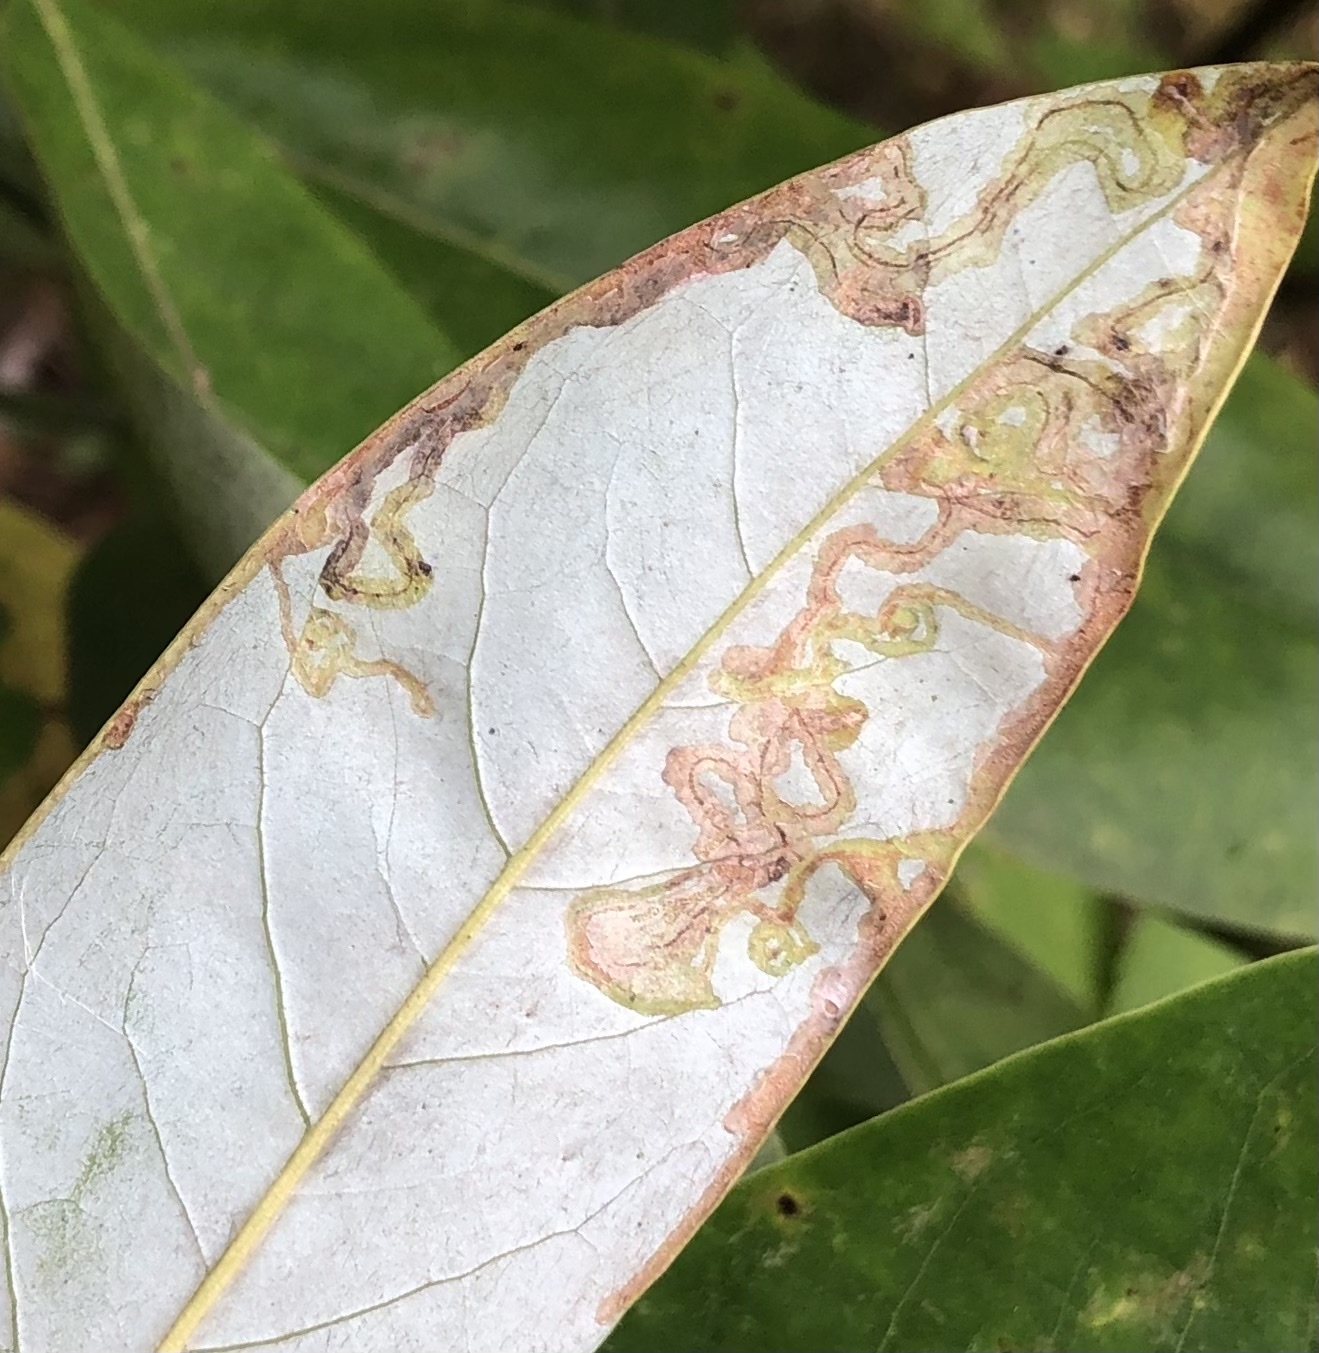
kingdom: Animalia
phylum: Arthropoda
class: Insecta
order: Lepidoptera
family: Gracillariidae
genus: Phyllocnistis
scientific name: Phyllocnistis liriodendronella
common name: Tulip tree leaf miner
